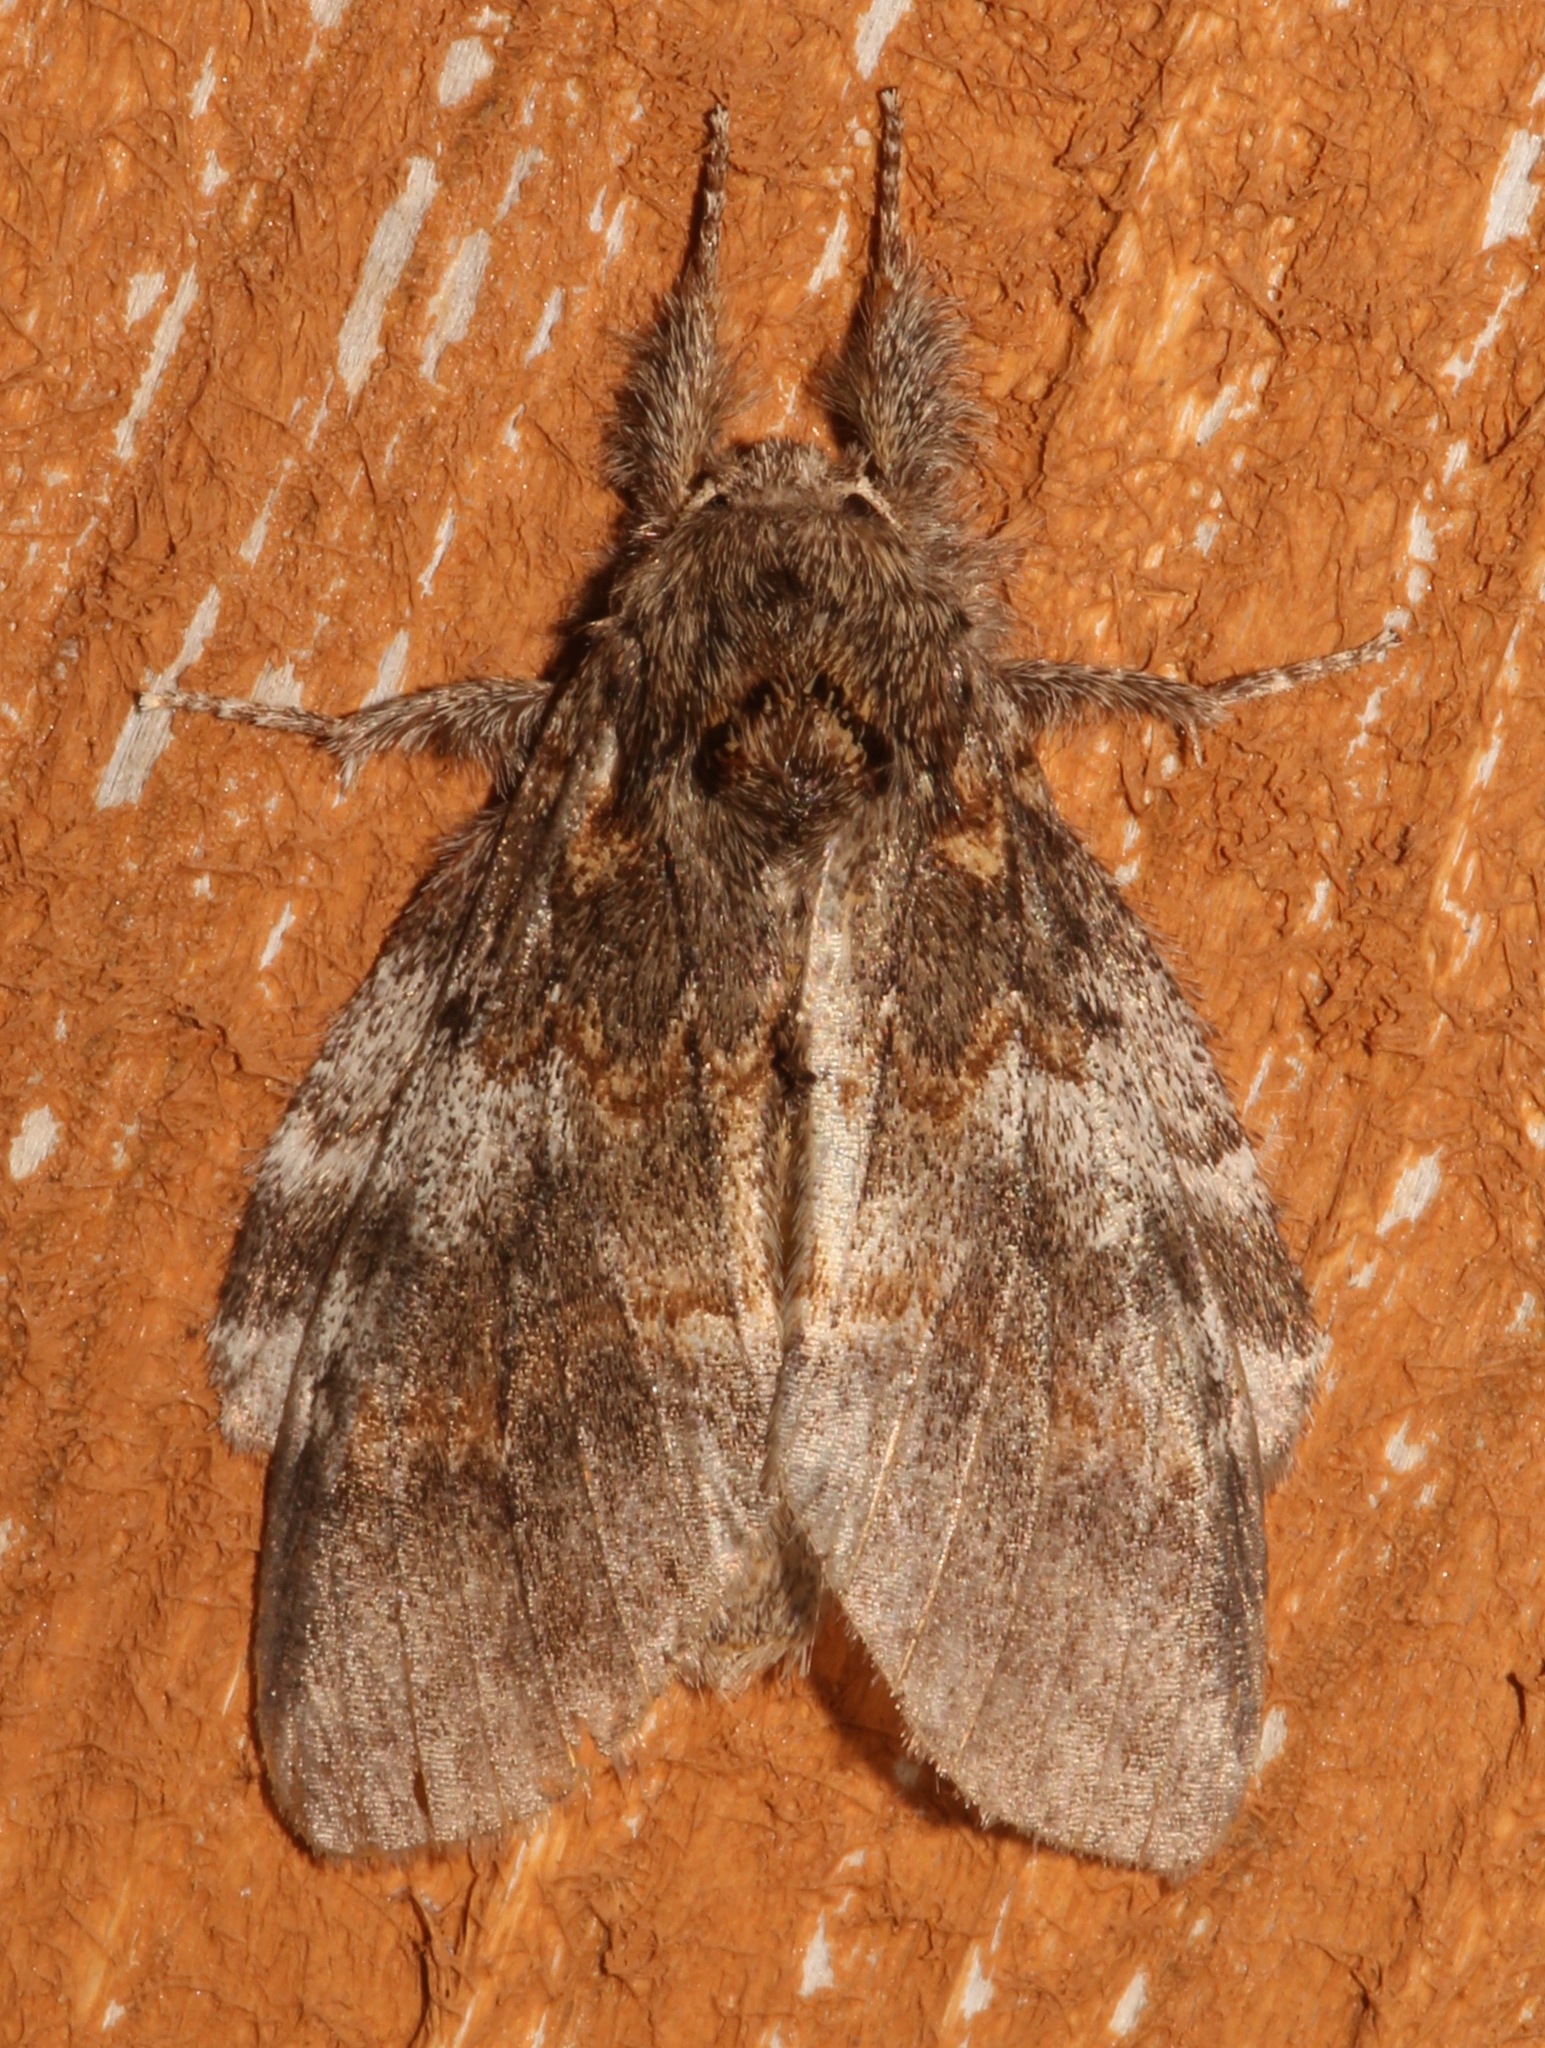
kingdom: Animalia
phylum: Arthropoda
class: Insecta
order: Lepidoptera
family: Notodontidae
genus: Peridea
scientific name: Peridea angulosa
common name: Angulose prominent
